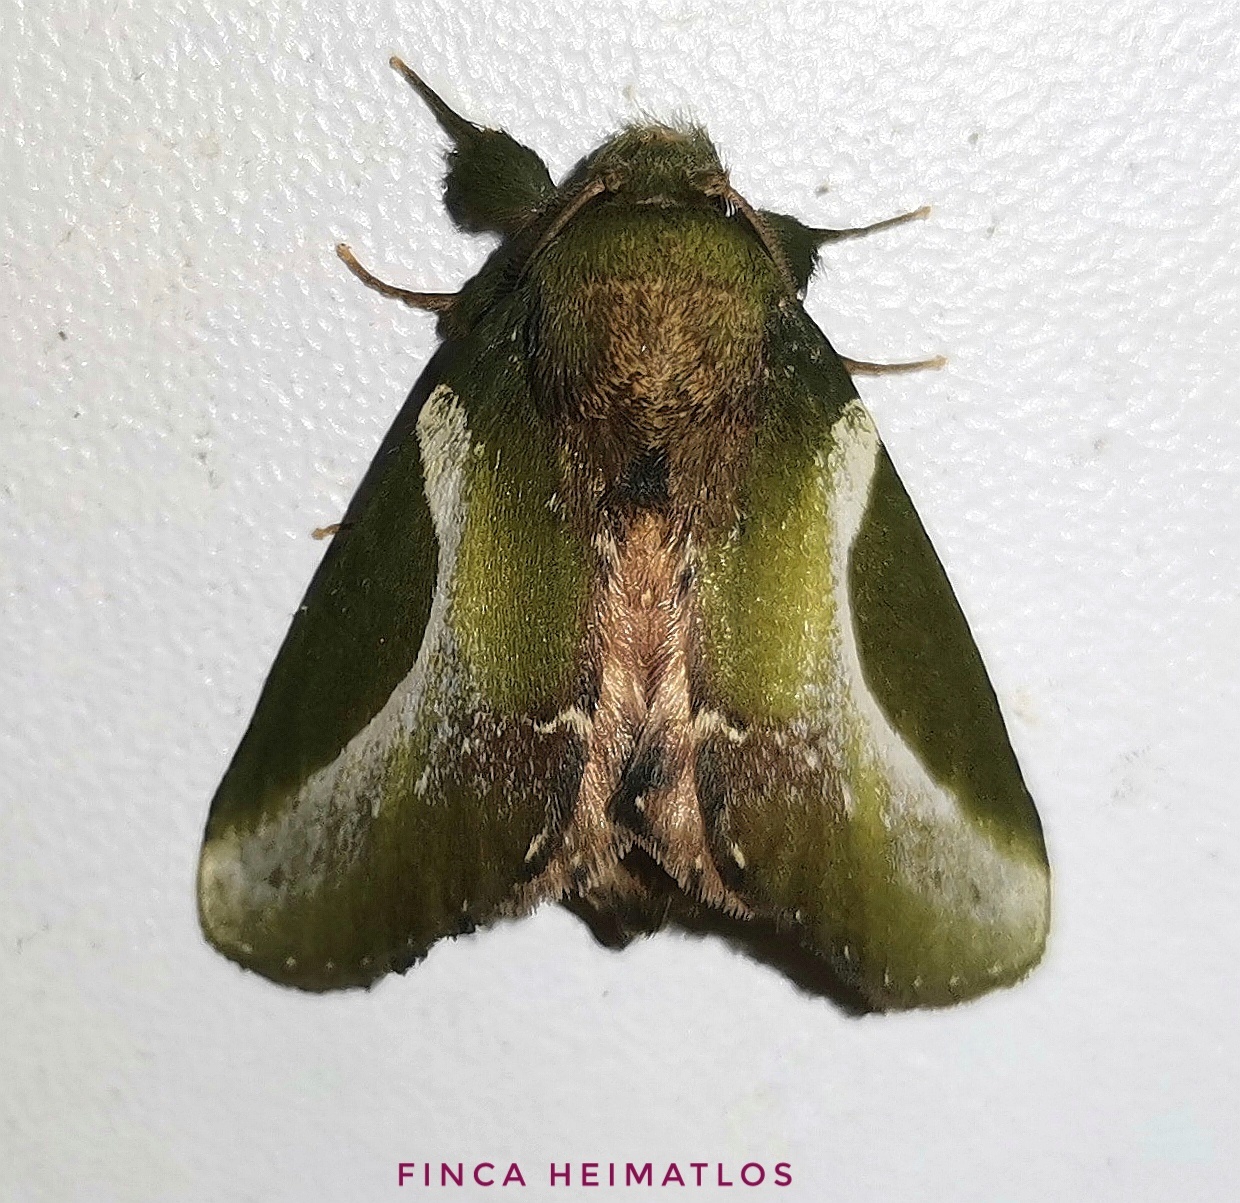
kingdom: Animalia
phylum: Arthropoda
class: Insecta
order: Lepidoptera
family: Notodontidae
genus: Disphragis
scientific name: Disphragis splendens
